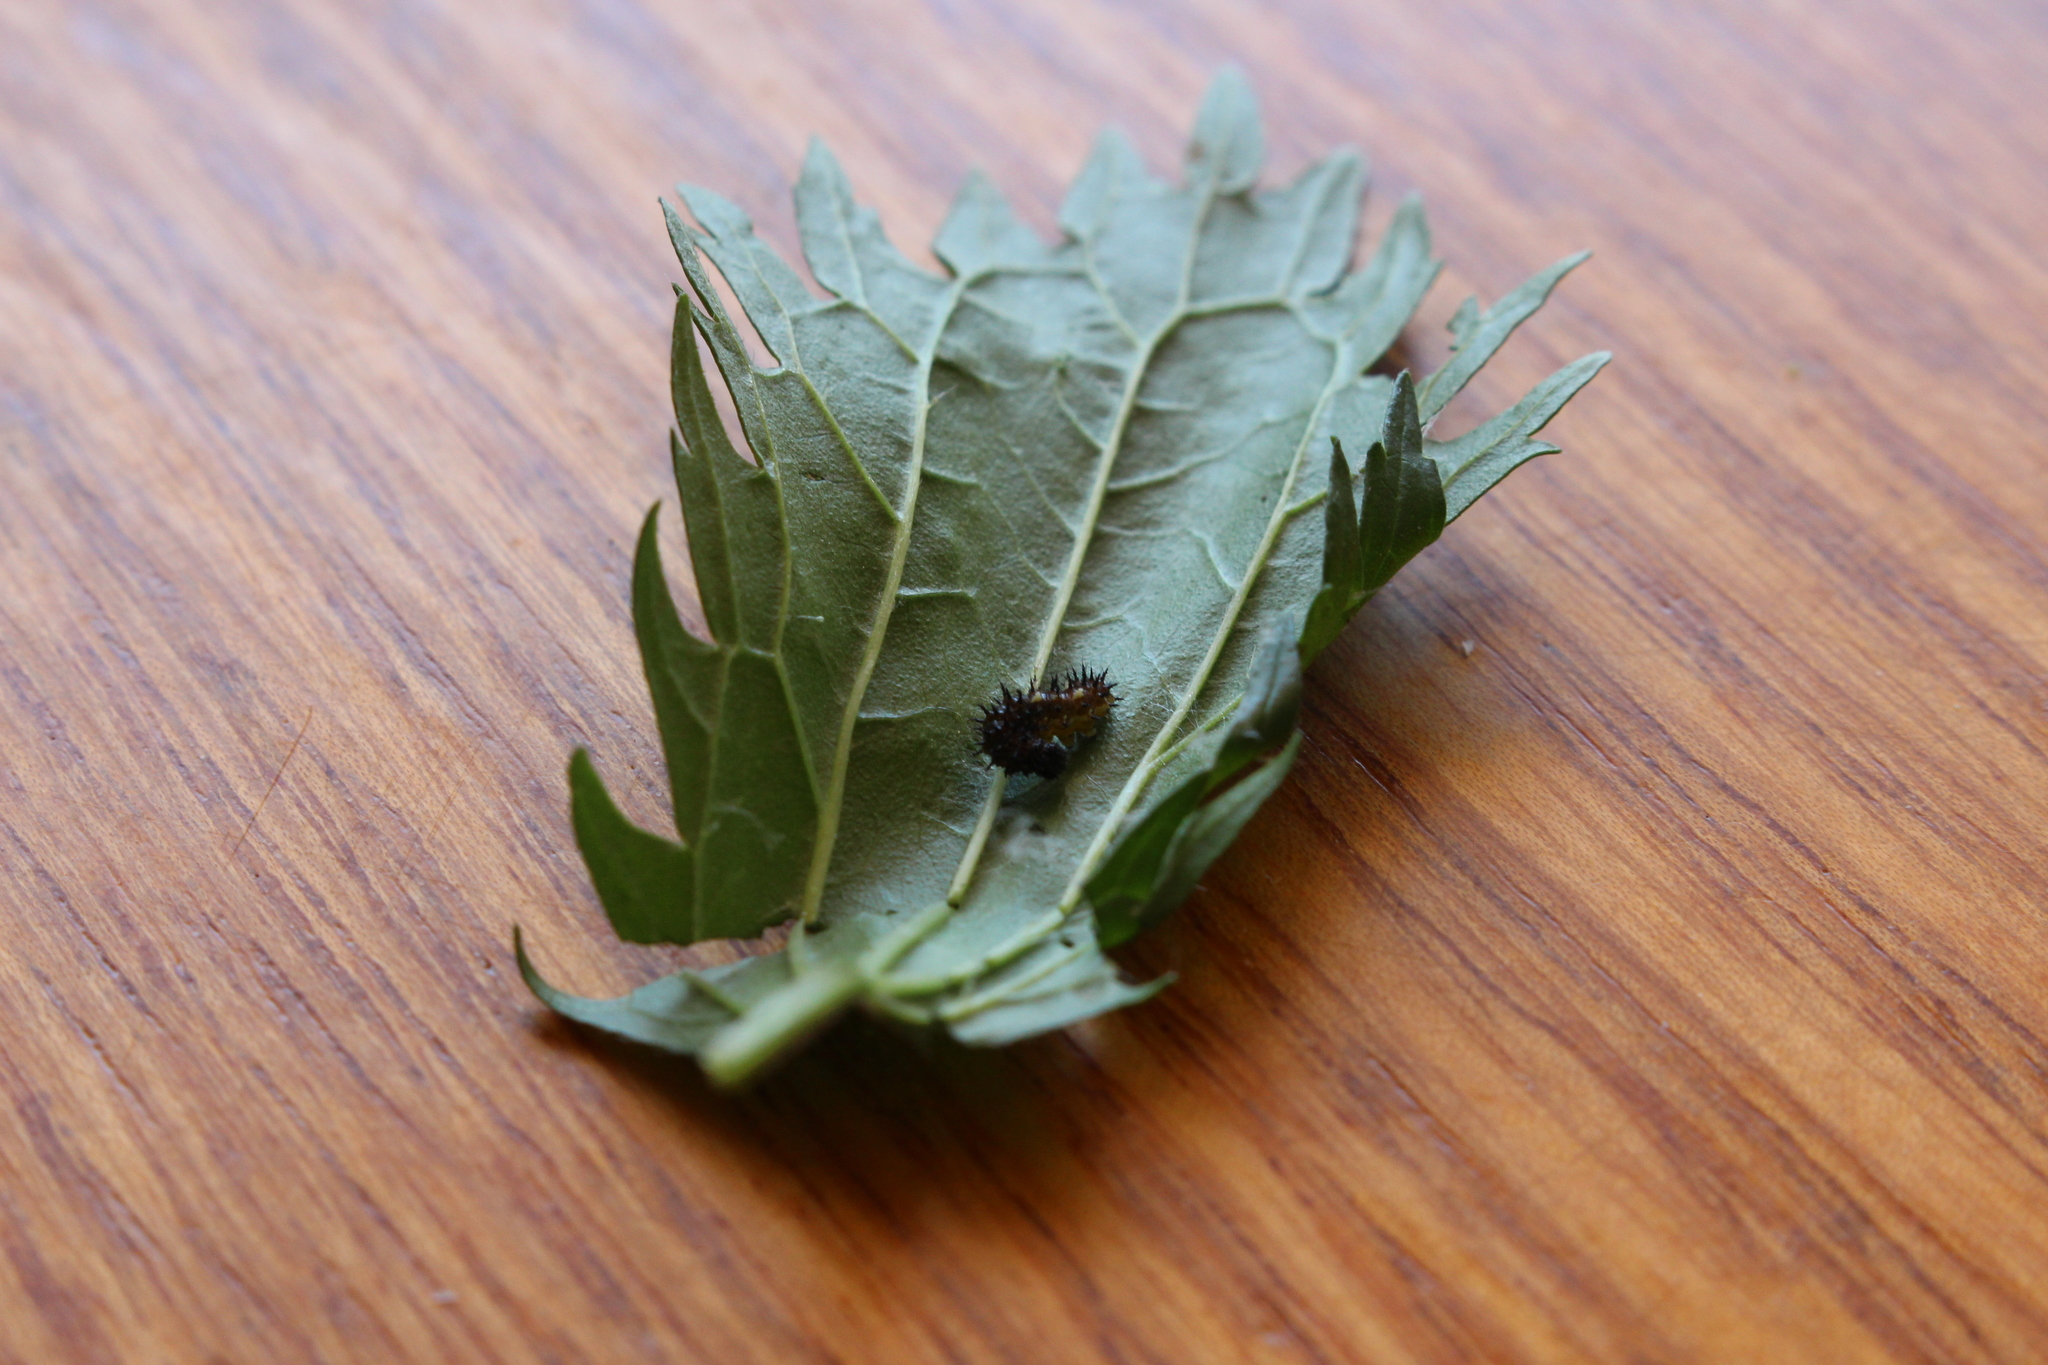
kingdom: Plantae
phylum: Tracheophyta
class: Magnoliopsida
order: Rosales
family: Urticaceae
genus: Urtica
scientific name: Urtica urens
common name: Dwarf nettle
